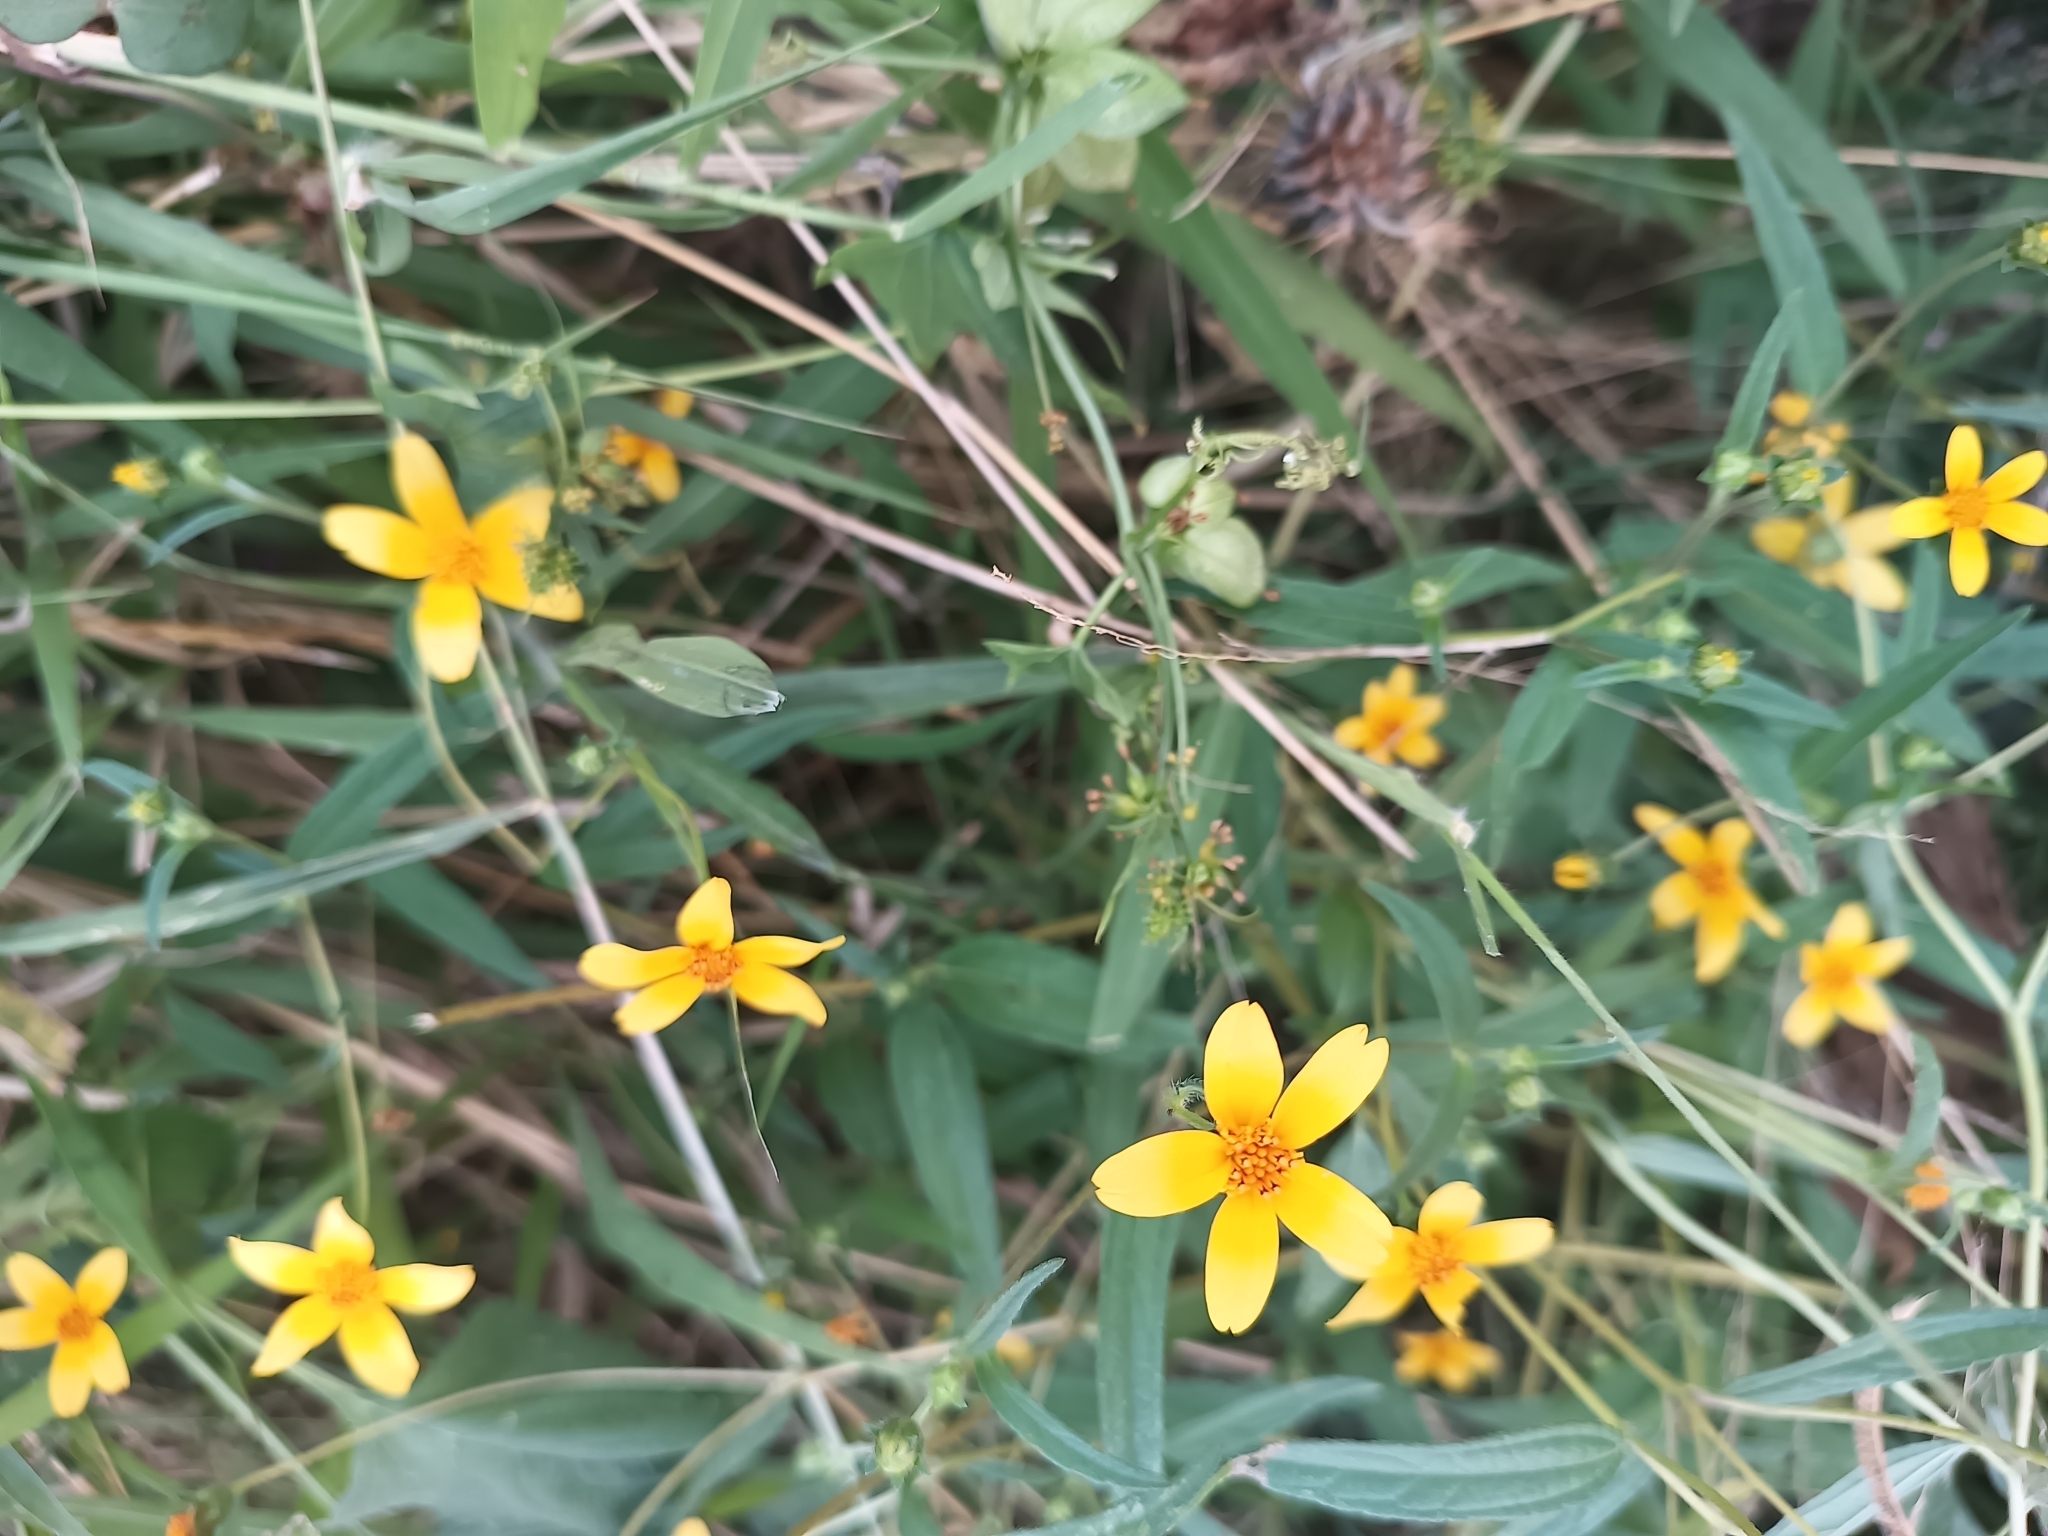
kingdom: Plantae
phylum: Tracheophyta
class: Magnoliopsida
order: Asterales
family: Asteraceae
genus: Aldama
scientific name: Aldama dentata
